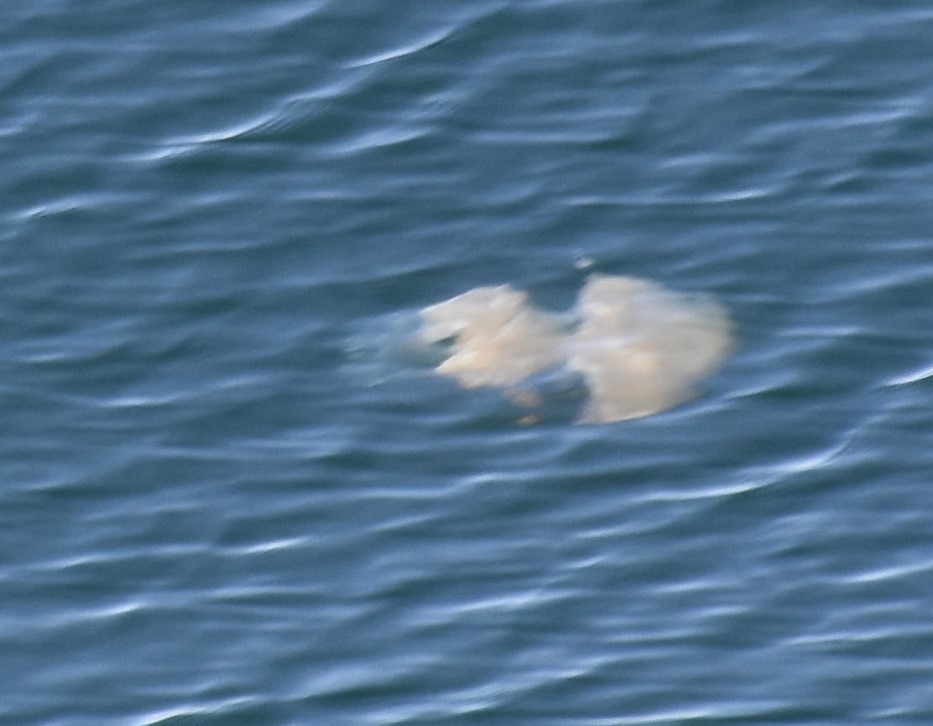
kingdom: Animalia
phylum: Cnidaria
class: Scyphozoa
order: Rhizostomeae
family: Rhizostomatidae
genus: Rhizostoma
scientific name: Rhizostoma octopus
